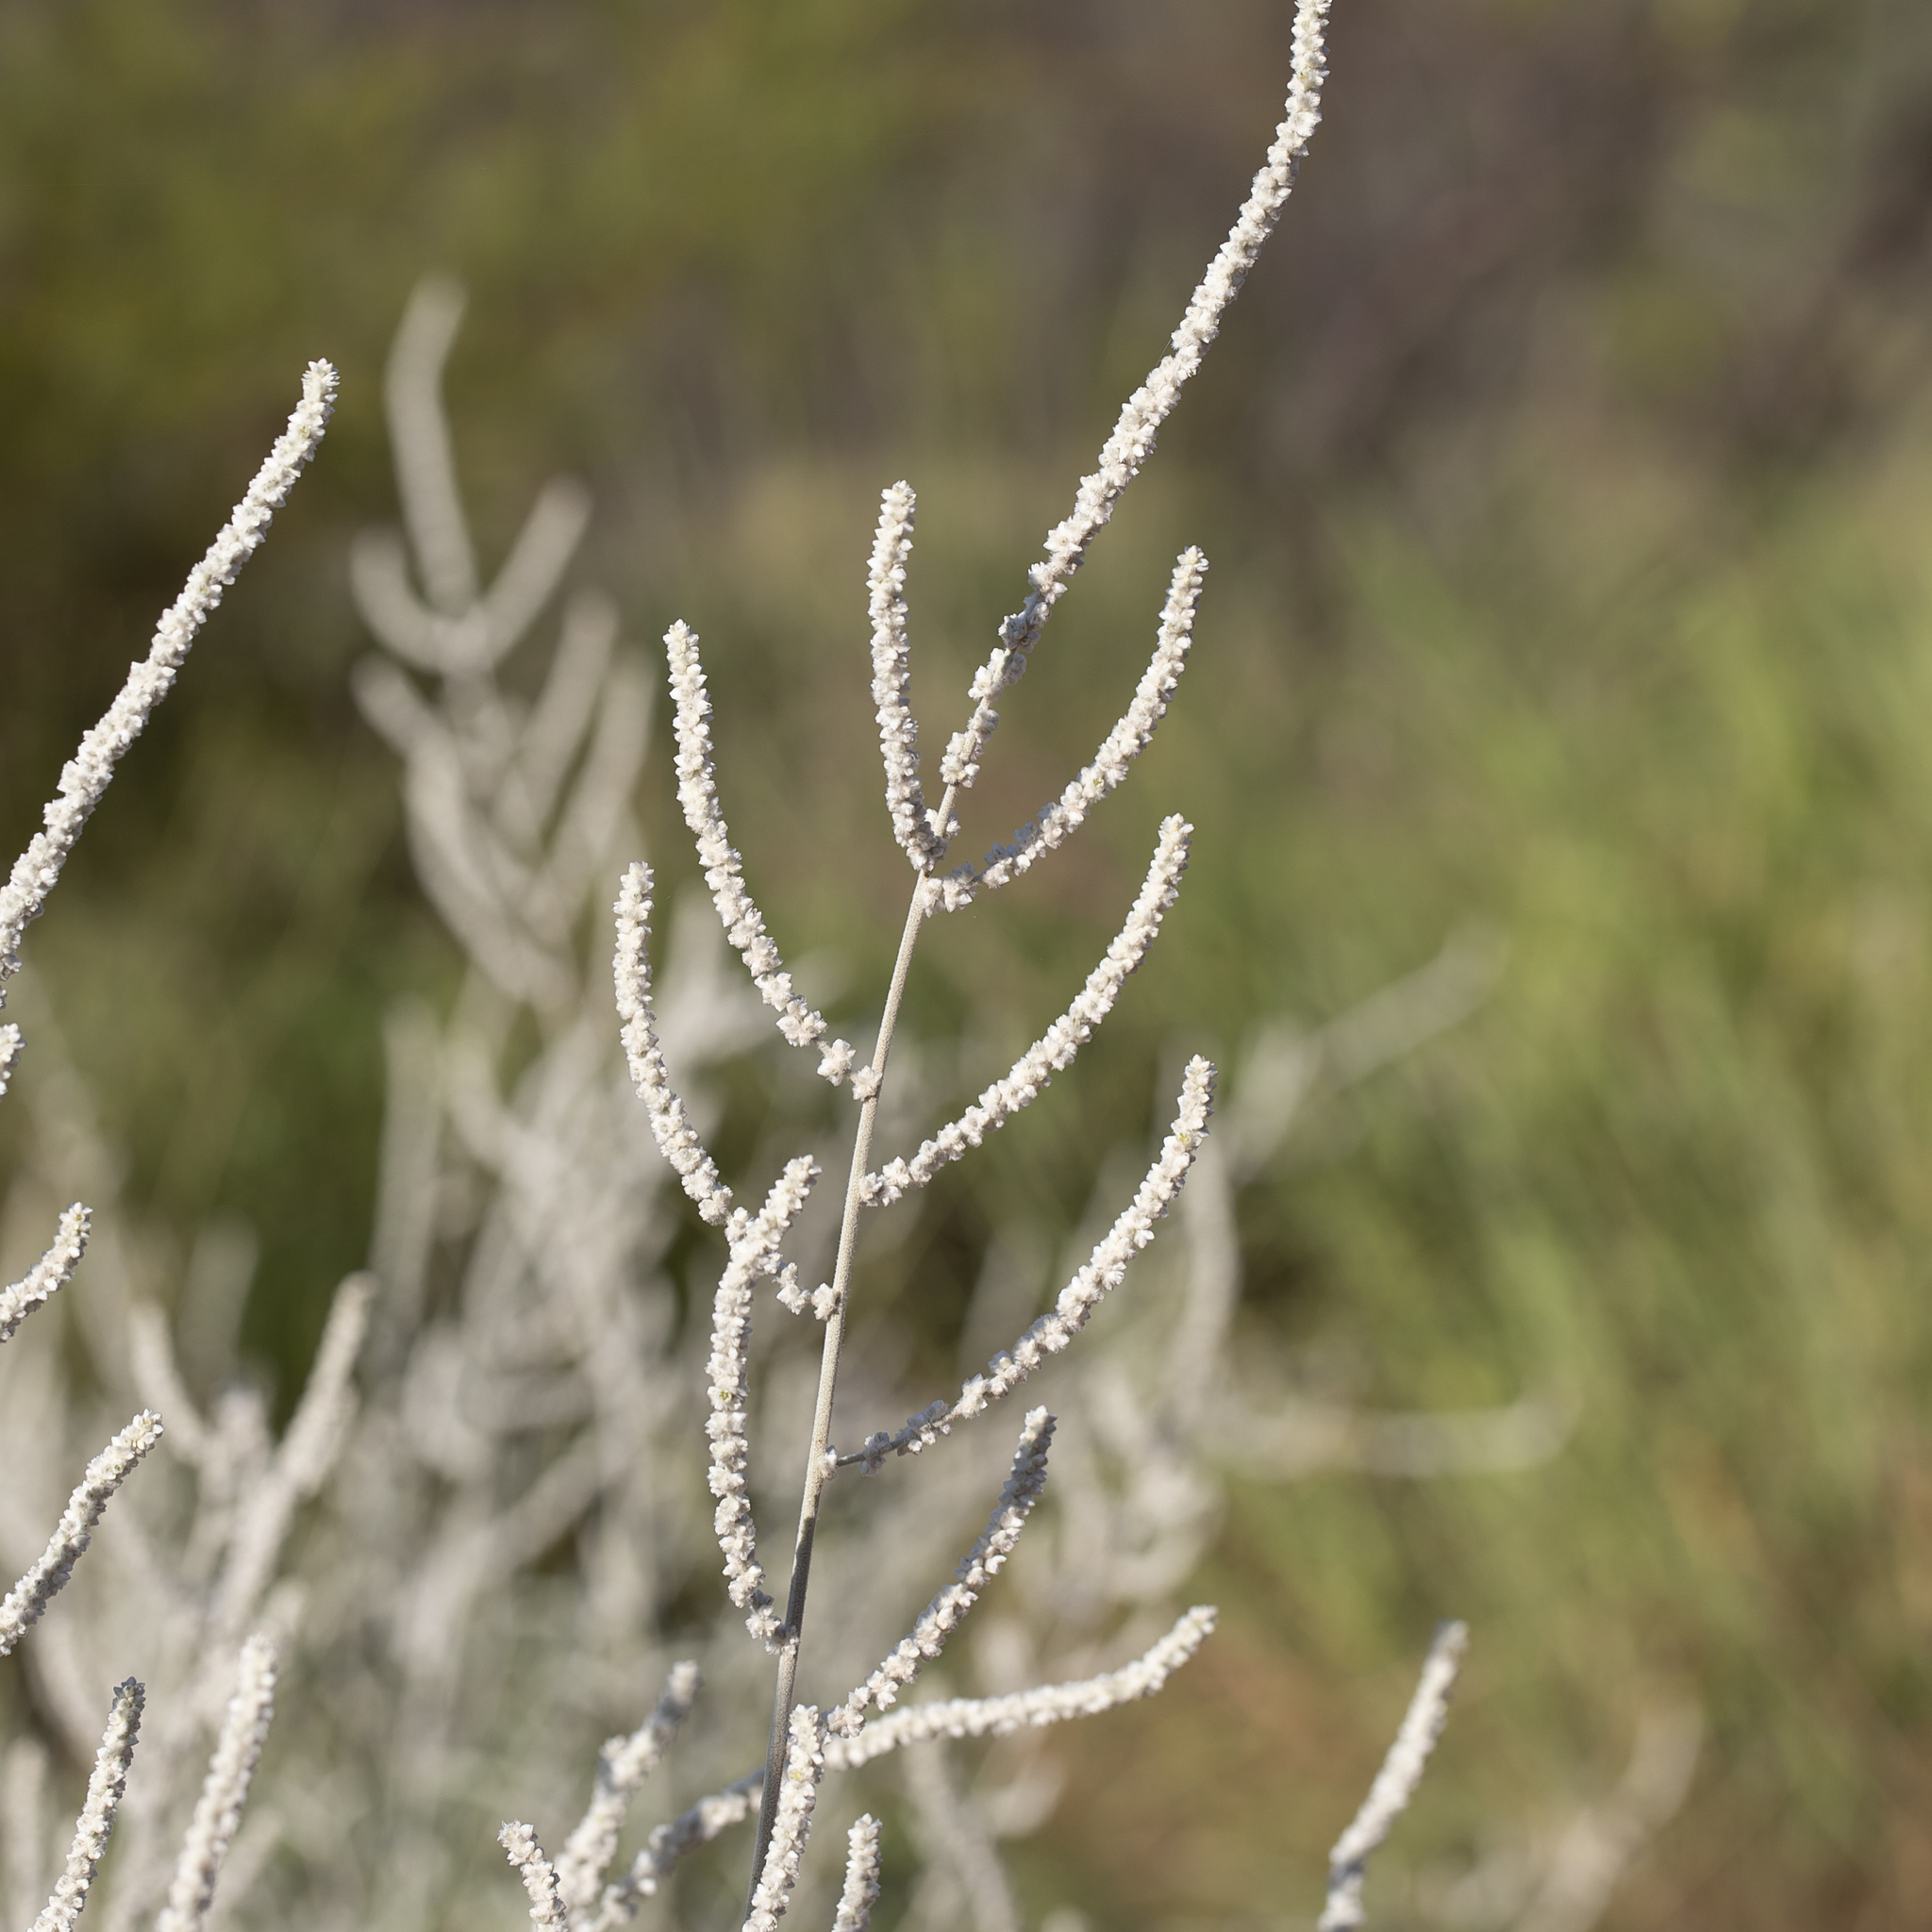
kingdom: Plantae
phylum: Tracheophyta
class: Magnoliopsida
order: Caryophyllales
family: Amaranthaceae
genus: Aerva
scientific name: Aerva javanica
